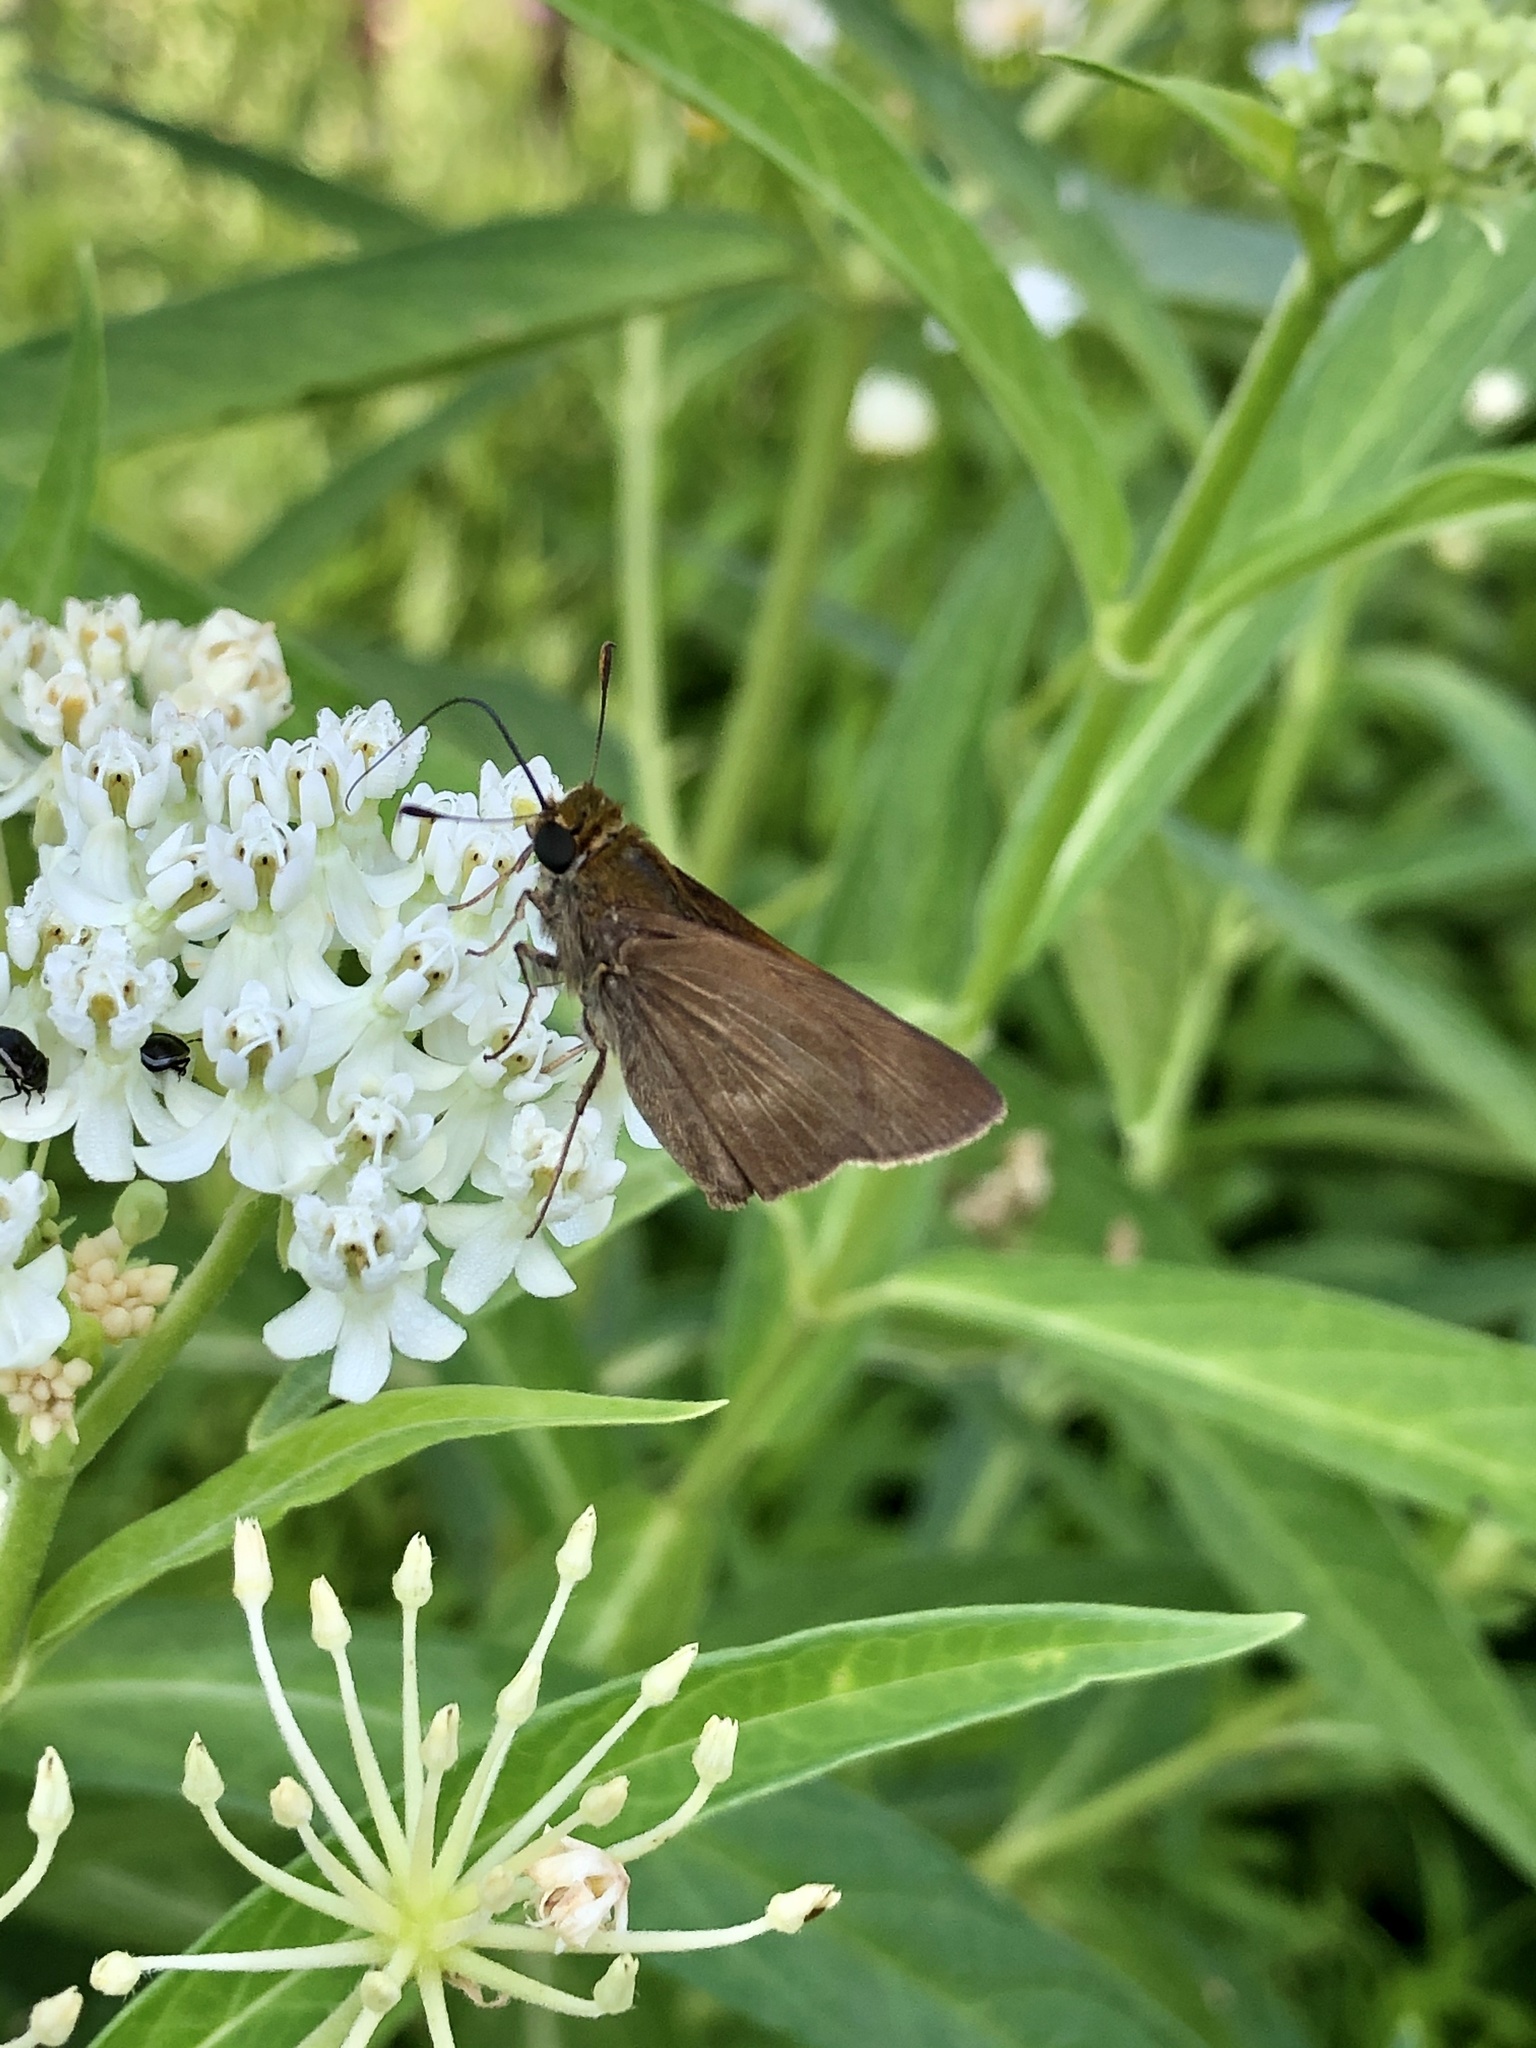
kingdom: Animalia
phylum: Arthropoda
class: Insecta
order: Lepidoptera
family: Hesperiidae
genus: Euphyes
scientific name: Euphyes vestris
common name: Dun skipper
